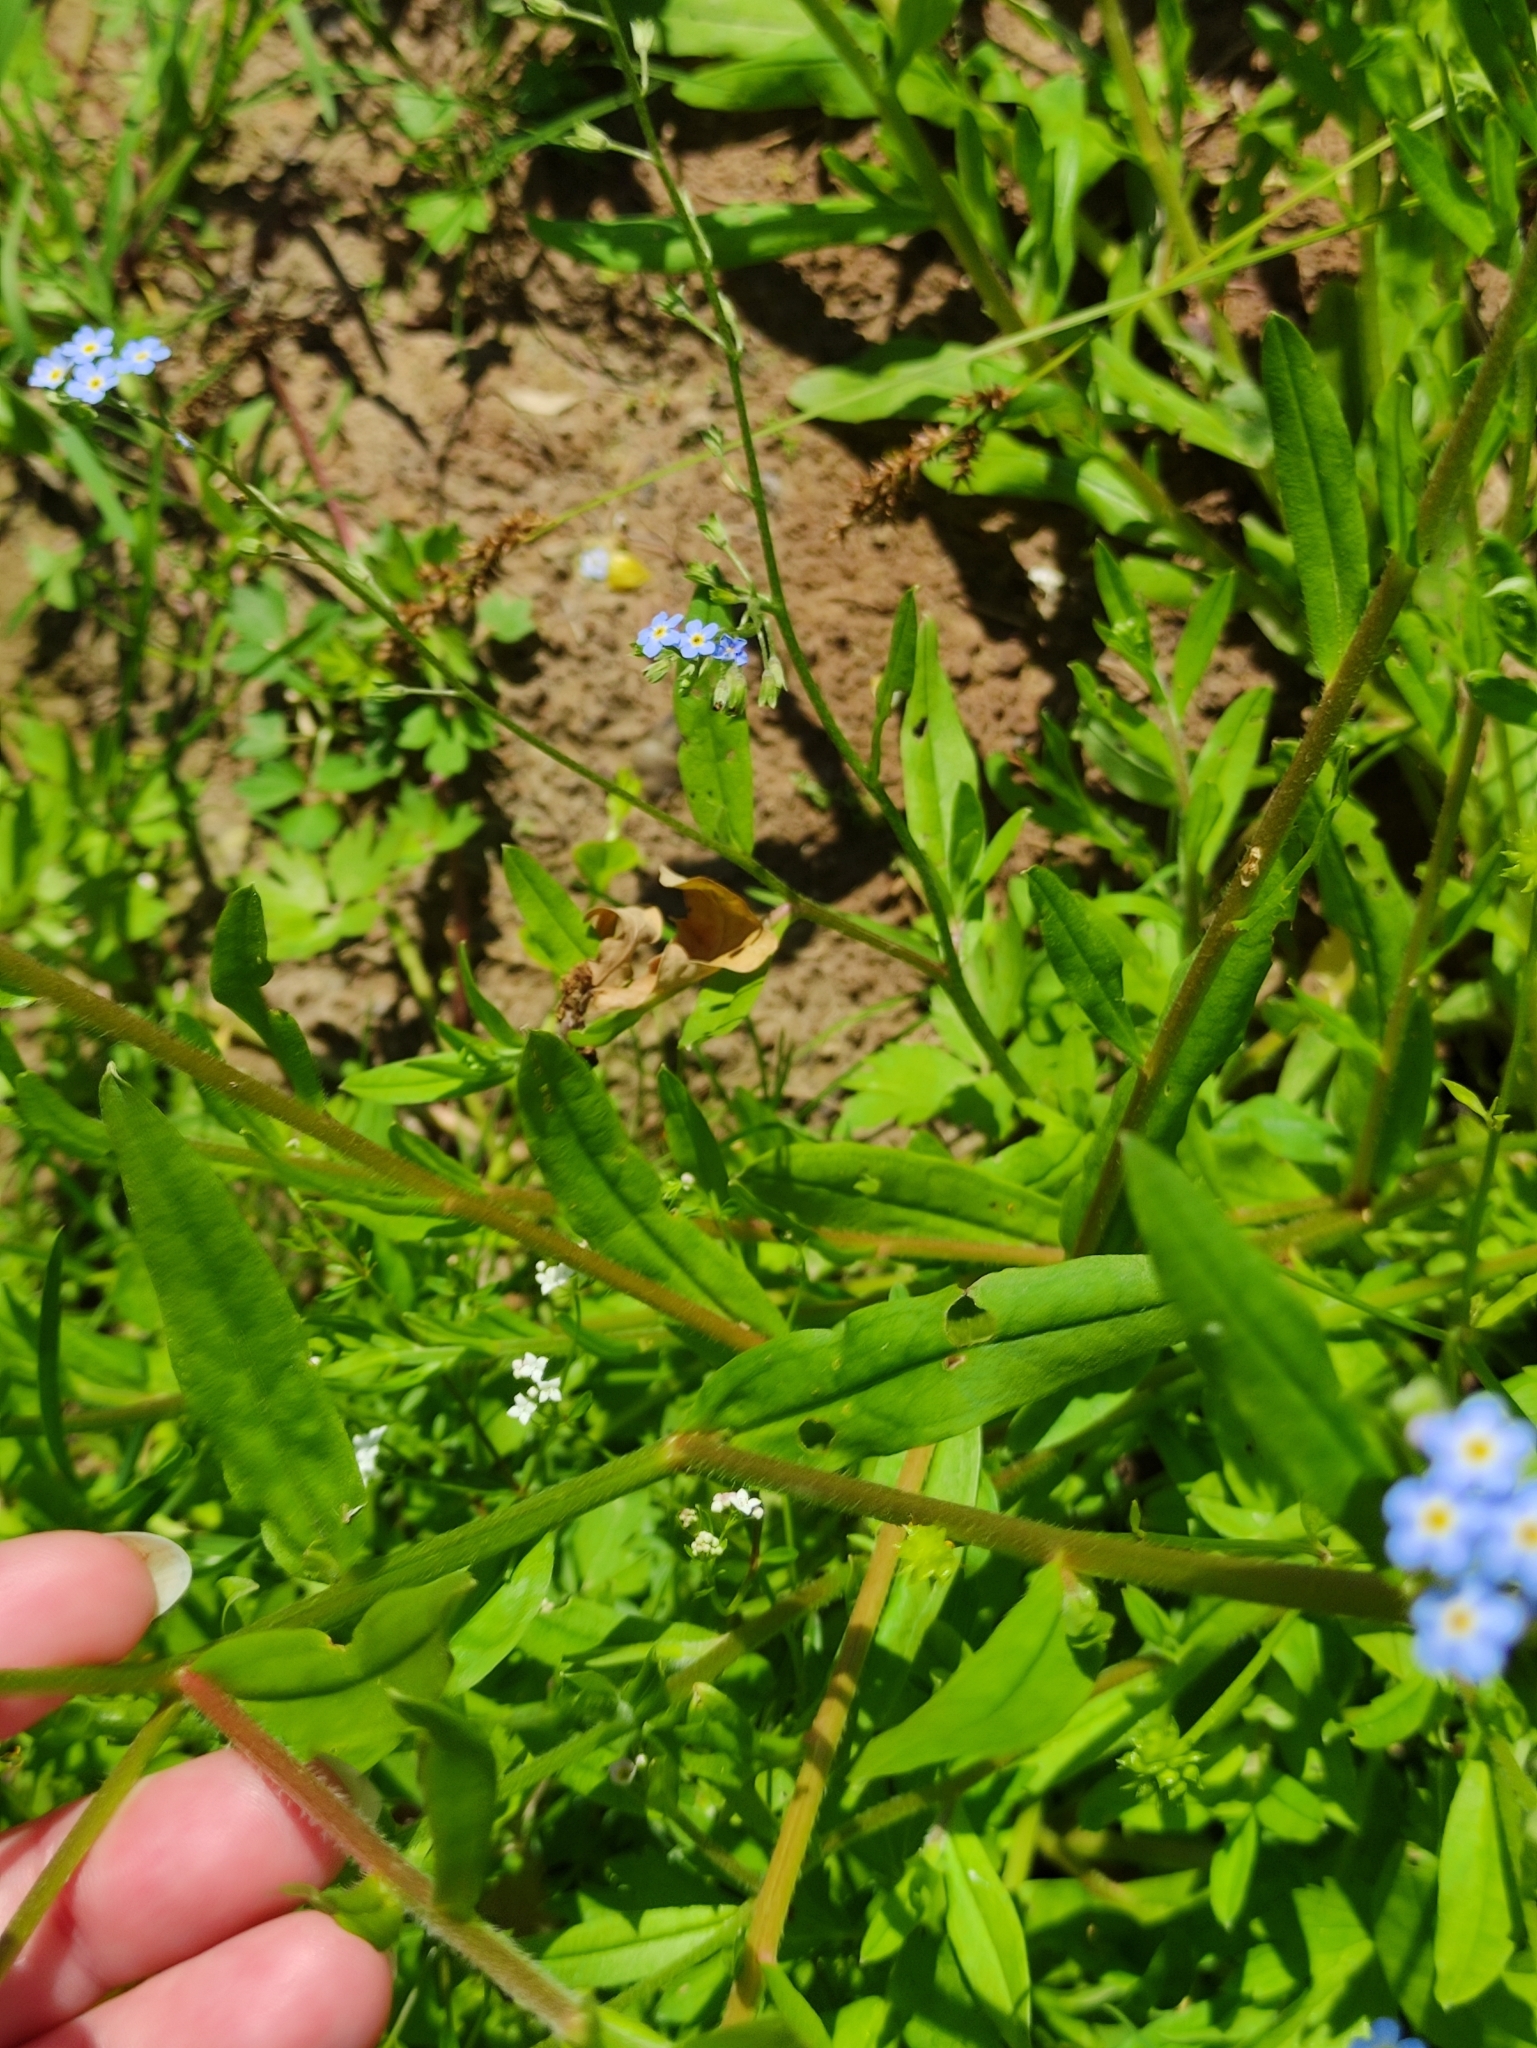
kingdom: Plantae
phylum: Tracheophyta
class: Magnoliopsida
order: Boraginales
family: Boraginaceae
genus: Myosotis
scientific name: Myosotis scorpioides
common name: Water forget-me-not
